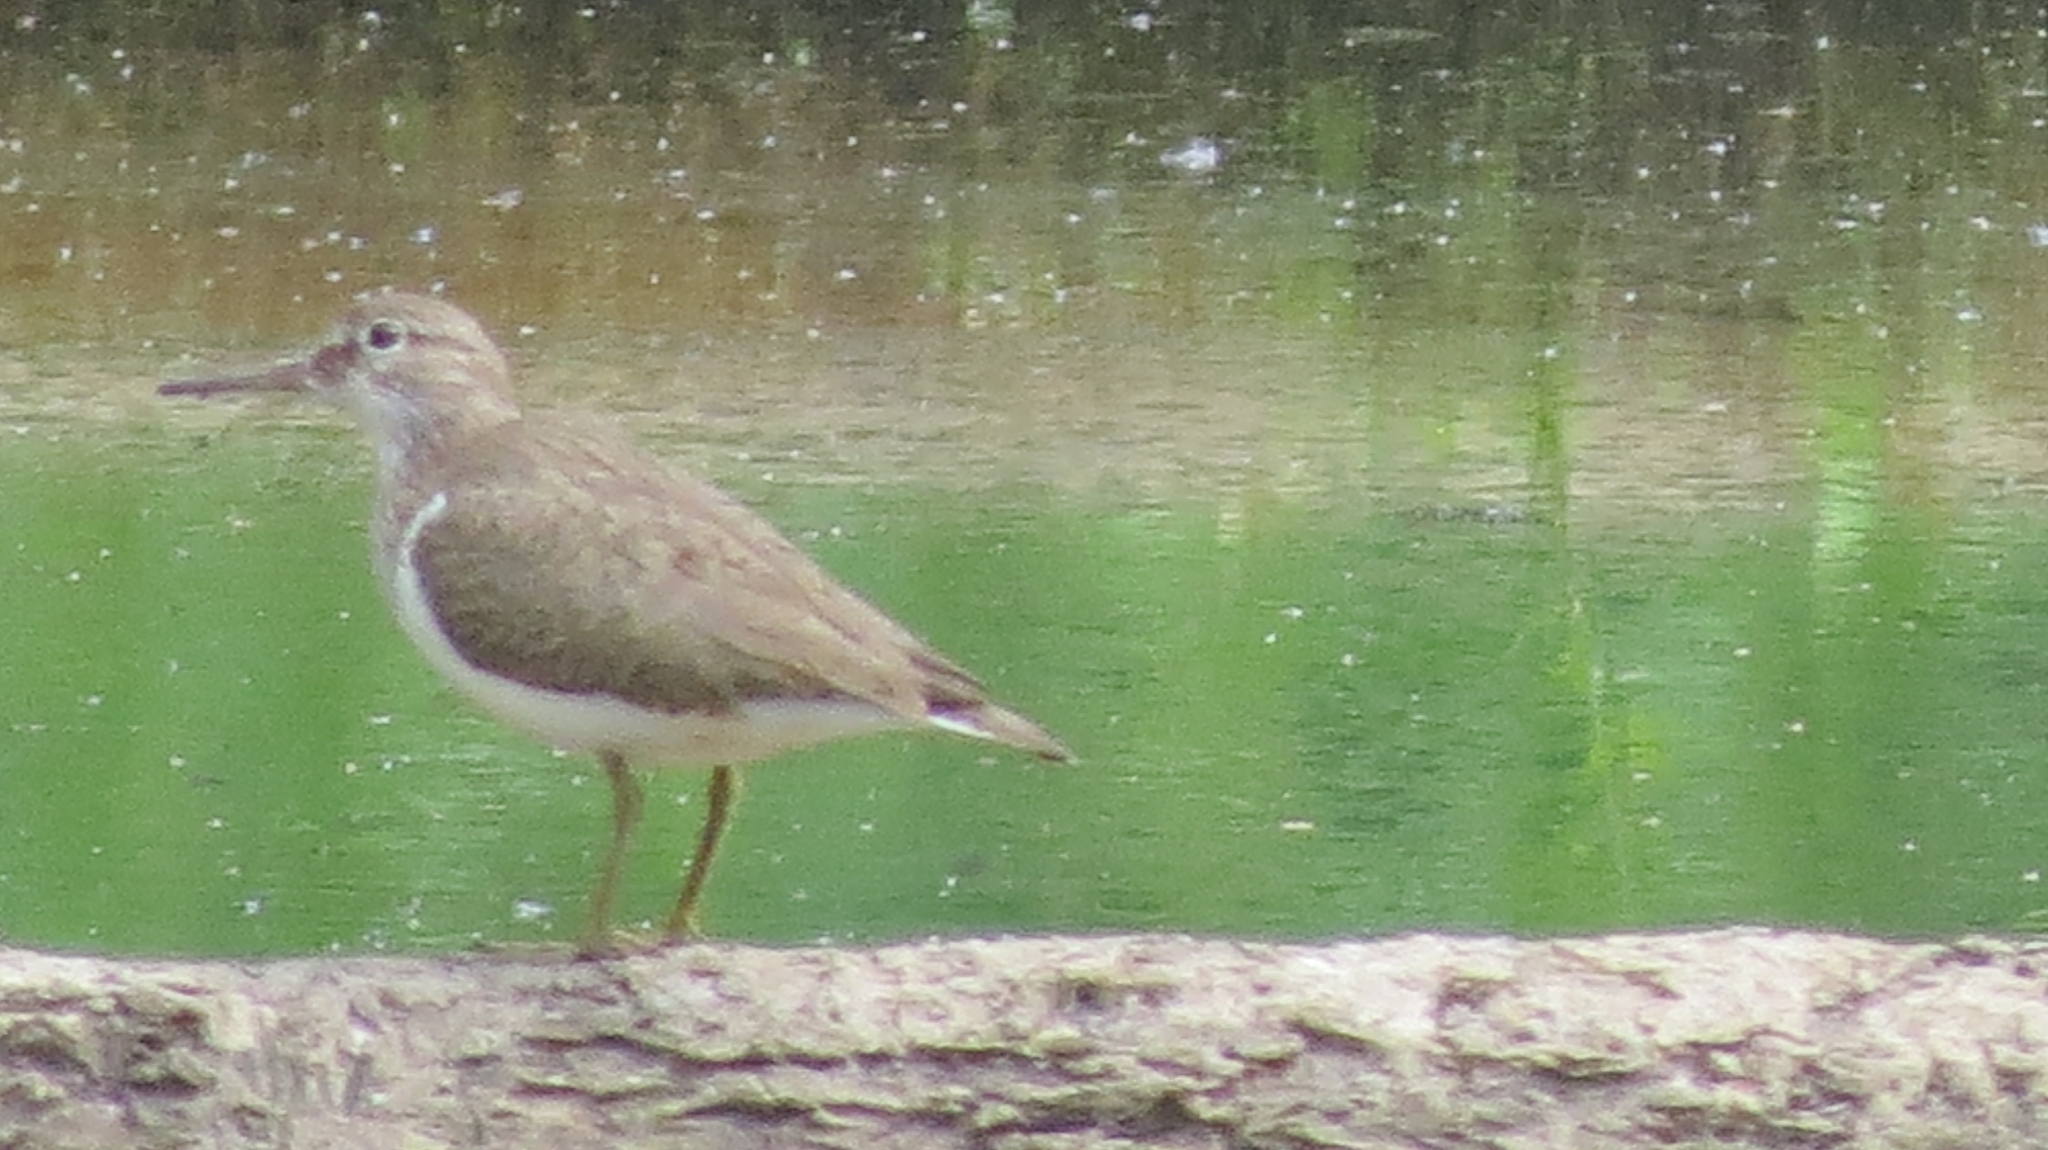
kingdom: Animalia
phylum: Chordata
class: Aves
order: Charadriiformes
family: Scolopacidae
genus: Actitis
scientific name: Actitis hypoleucos
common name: Common sandpiper
